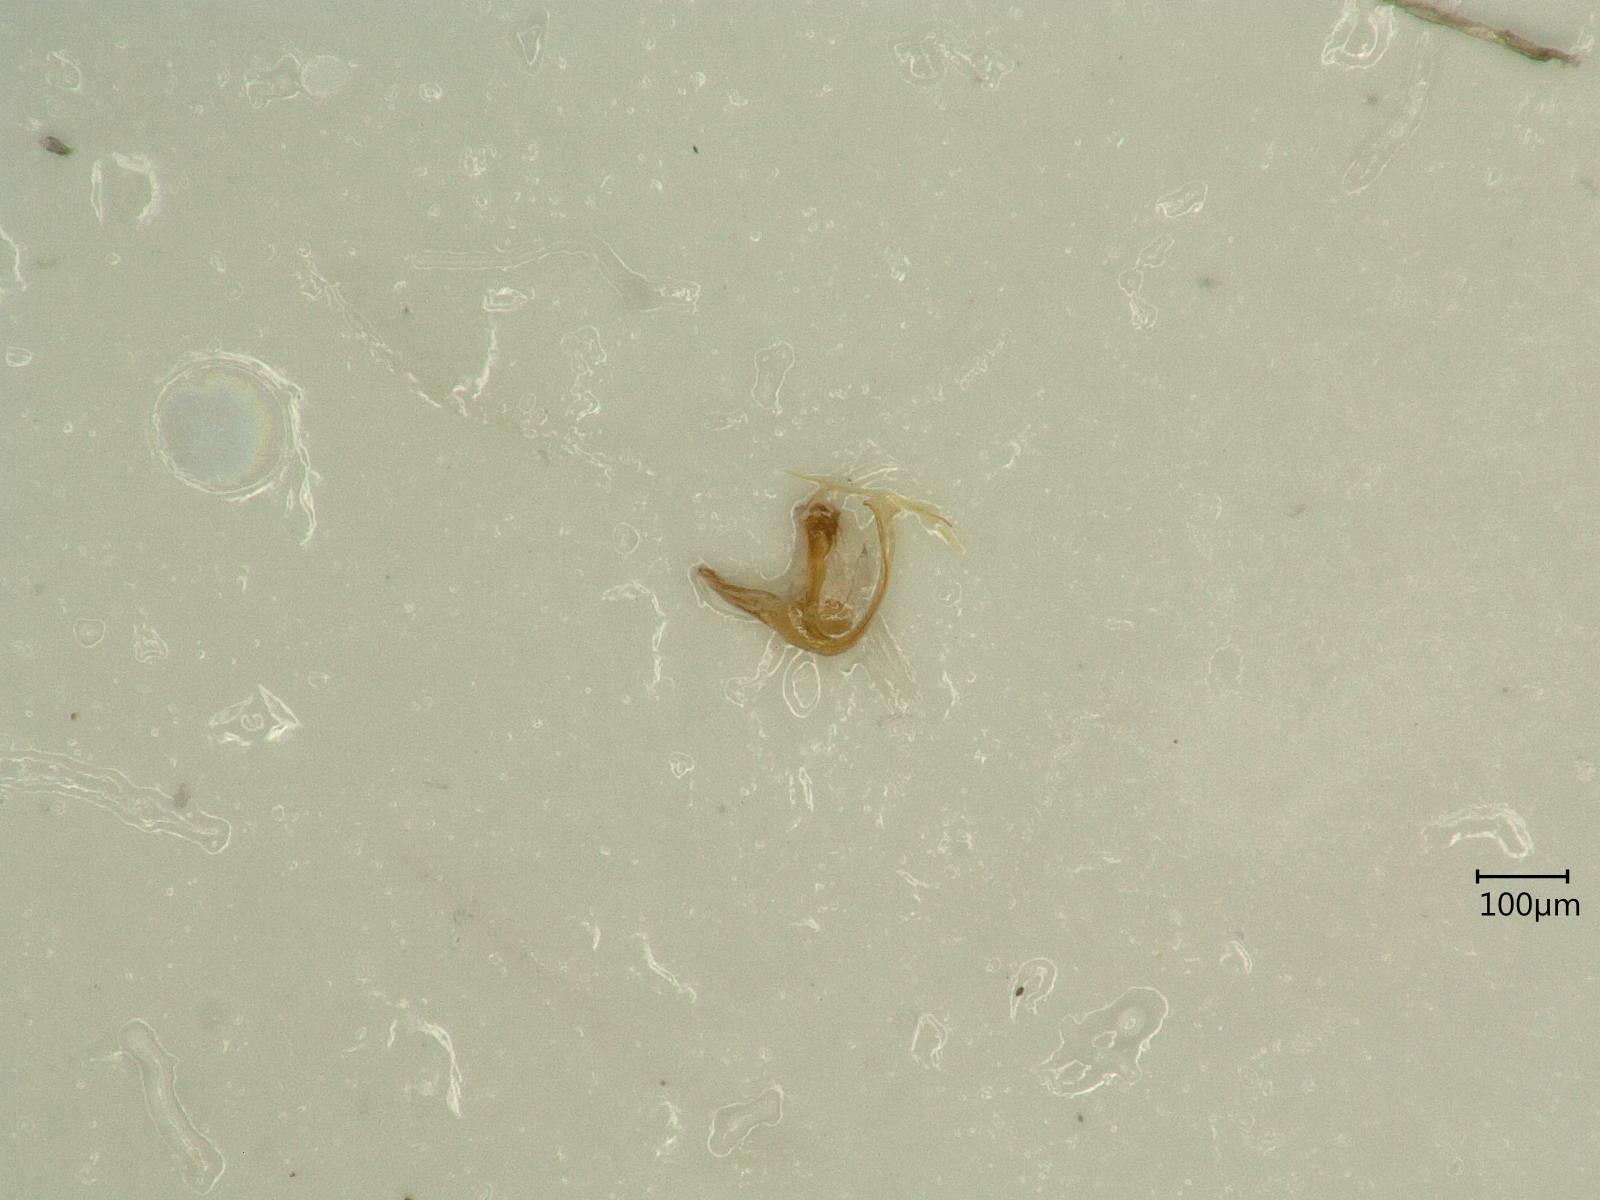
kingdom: Animalia
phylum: Arthropoda
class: Insecta
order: Hemiptera
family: Cicadellidae
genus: Eupteryx
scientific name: Eupteryx calcarata
